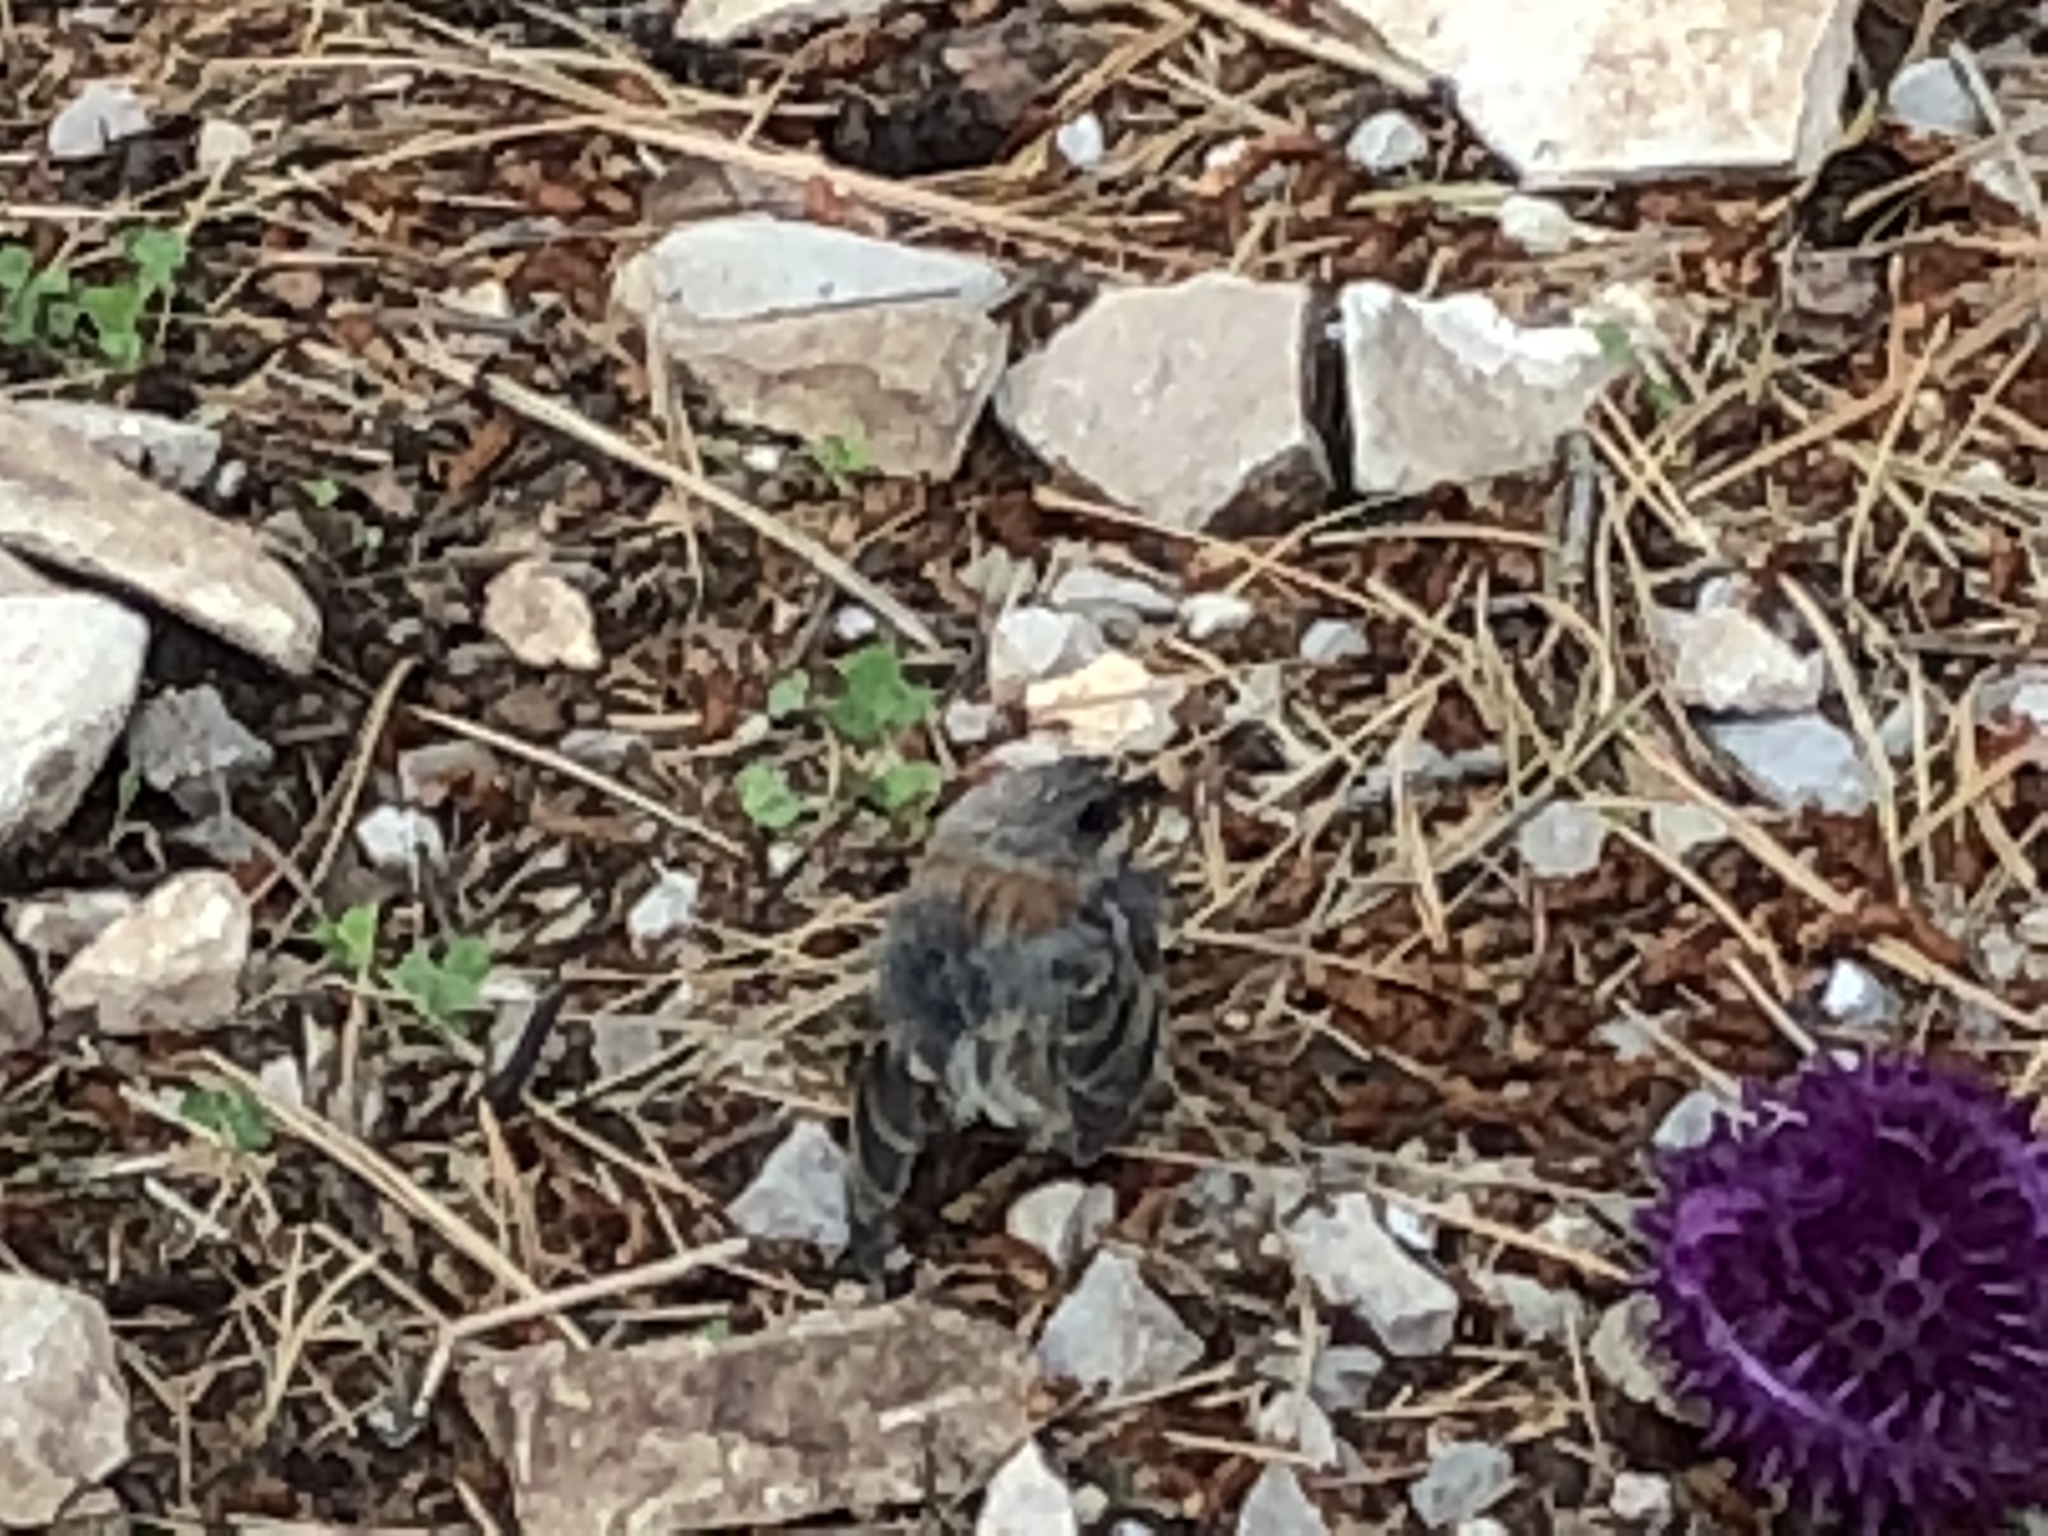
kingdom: Animalia
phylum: Chordata
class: Aves
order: Passeriformes
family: Passerellidae
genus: Junco
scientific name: Junco hyemalis
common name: Dark-eyed junco
